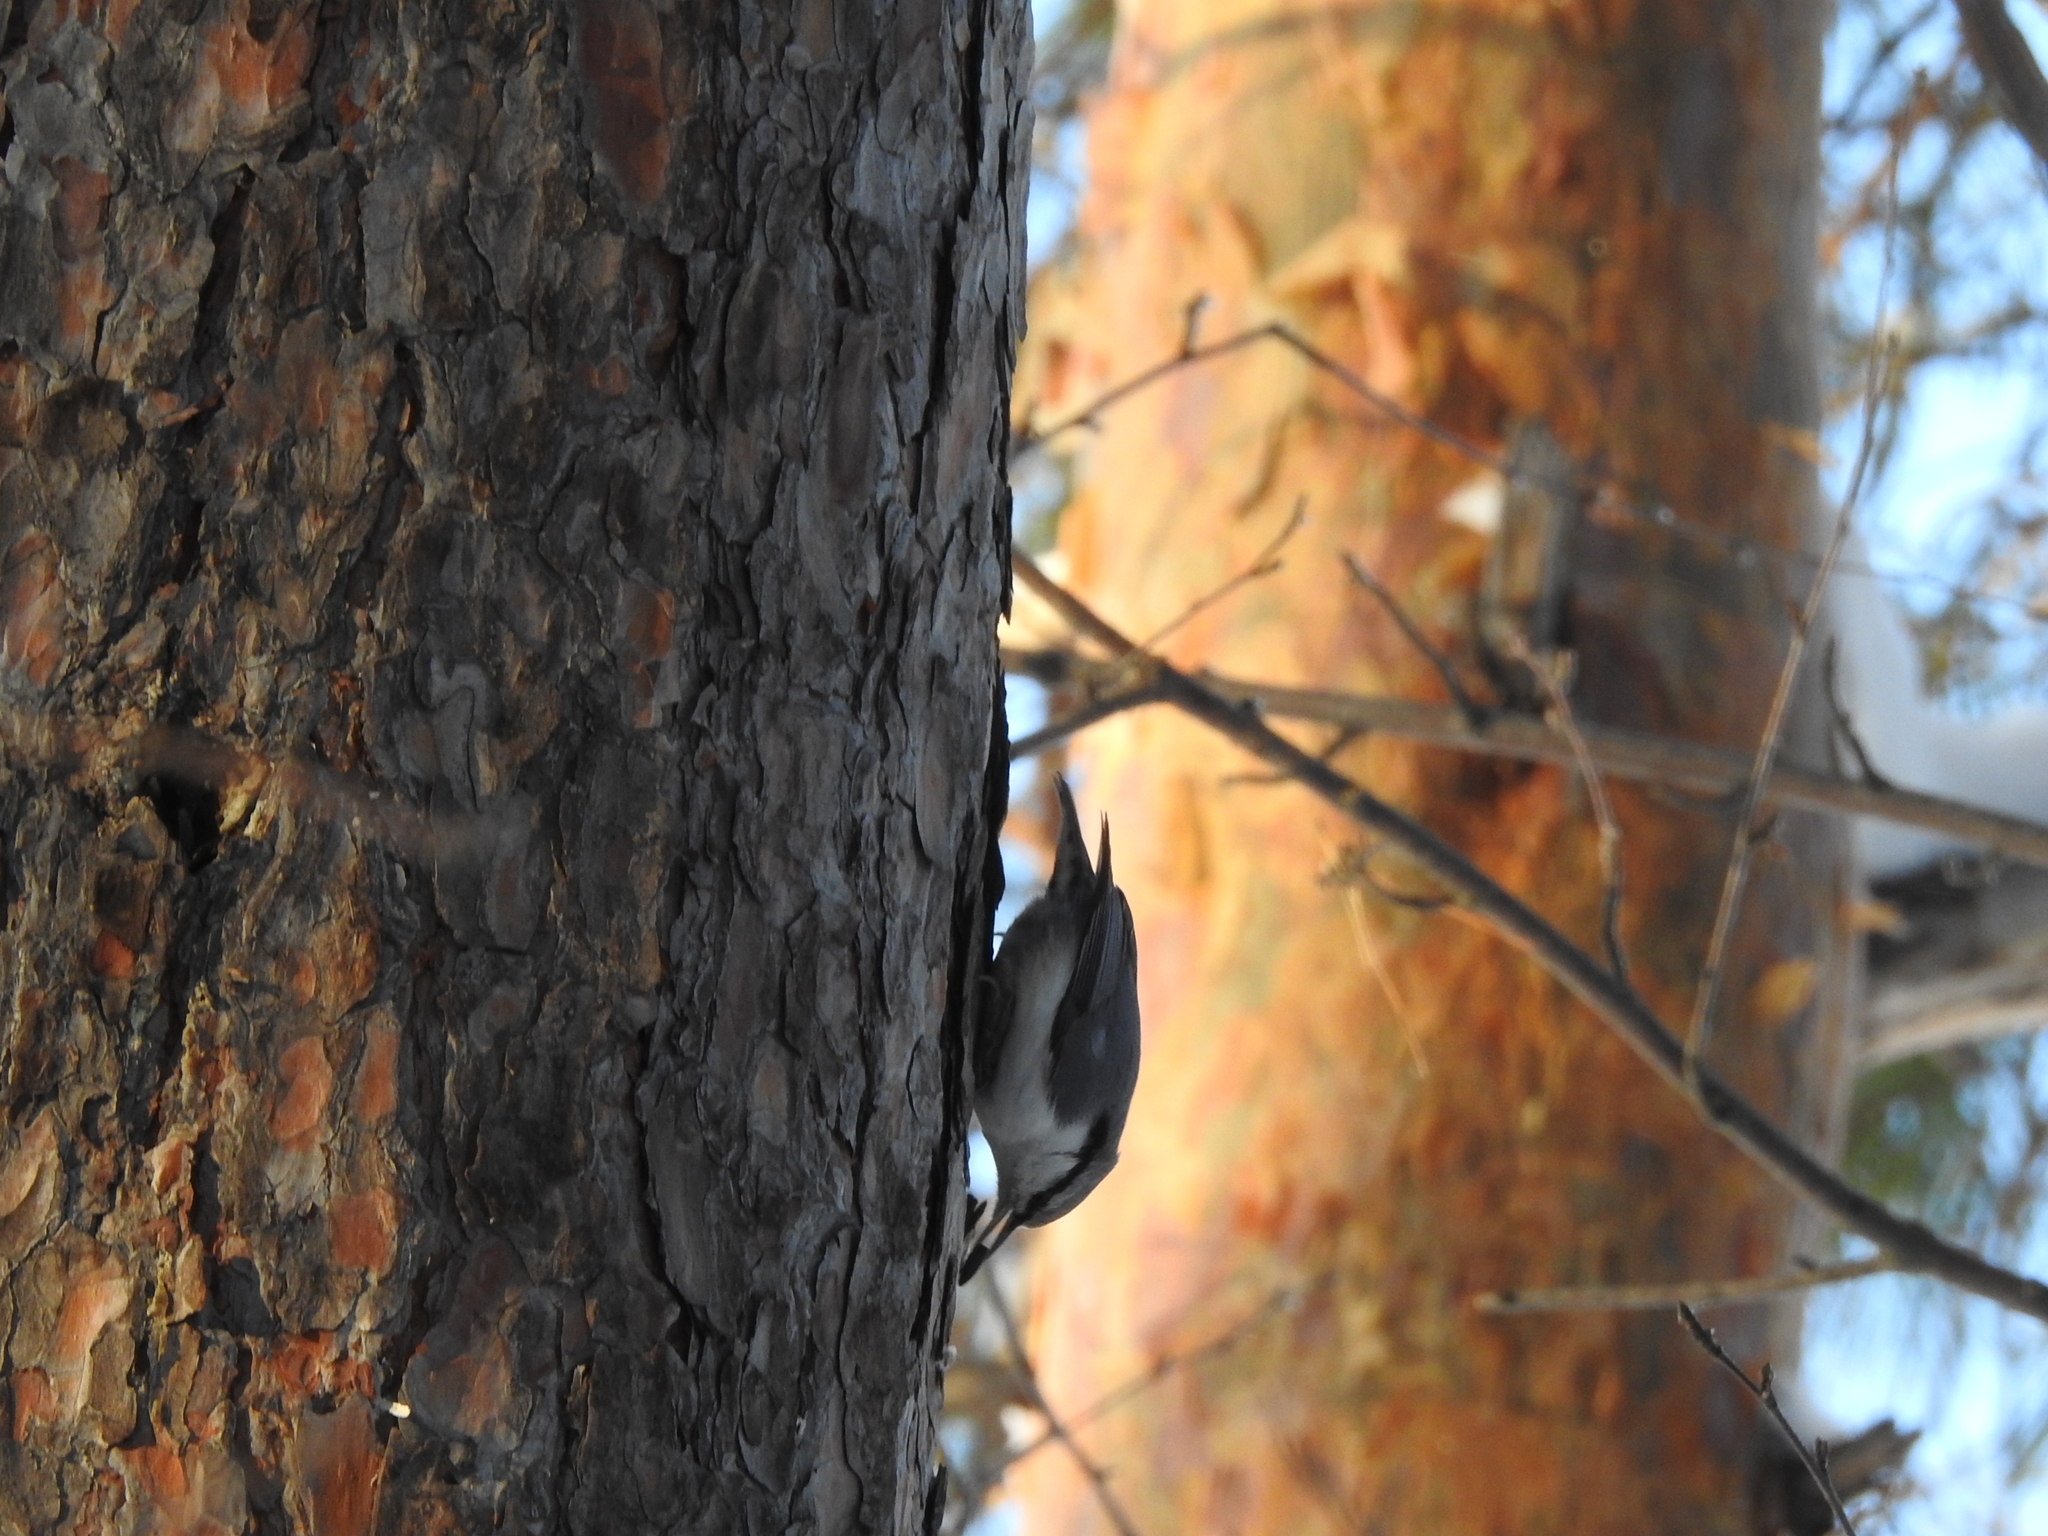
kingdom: Animalia
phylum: Chordata
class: Aves
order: Passeriformes
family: Sittidae
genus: Sitta
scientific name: Sitta europaea
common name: Eurasian nuthatch
